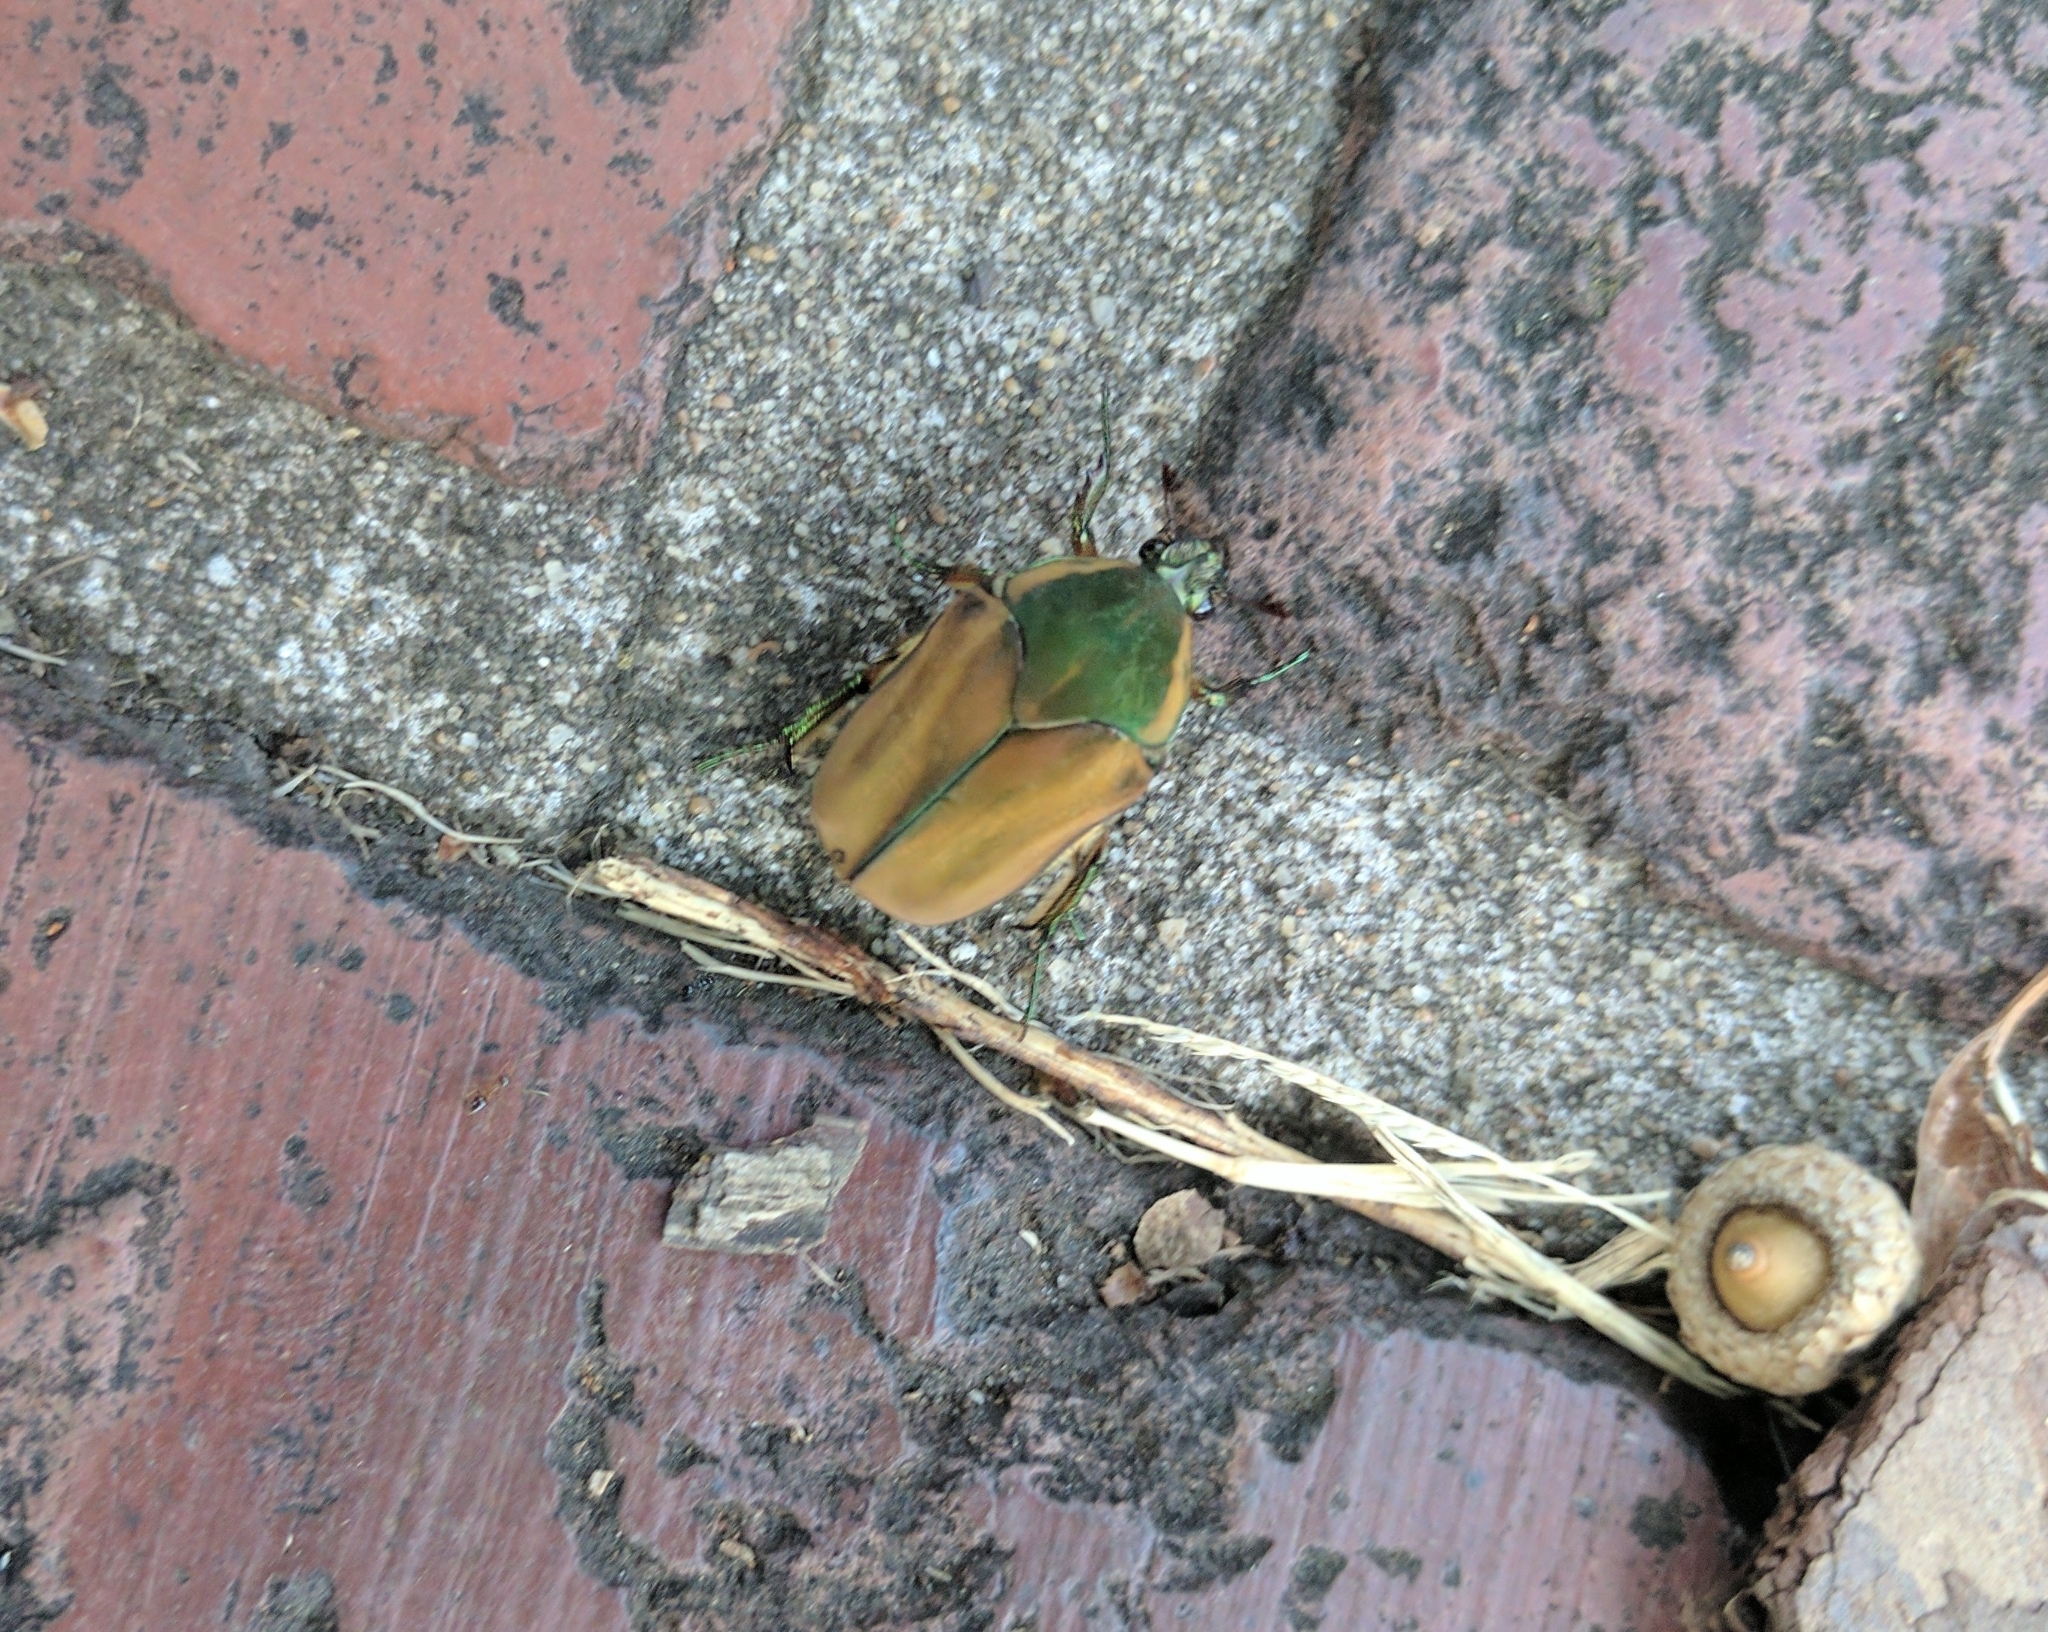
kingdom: Animalia
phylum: Arthropoda
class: Insecta
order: Coleoptera
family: Scarabaeidae
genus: Cotinis
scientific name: Cotinis nitida
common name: Common green june beetle
